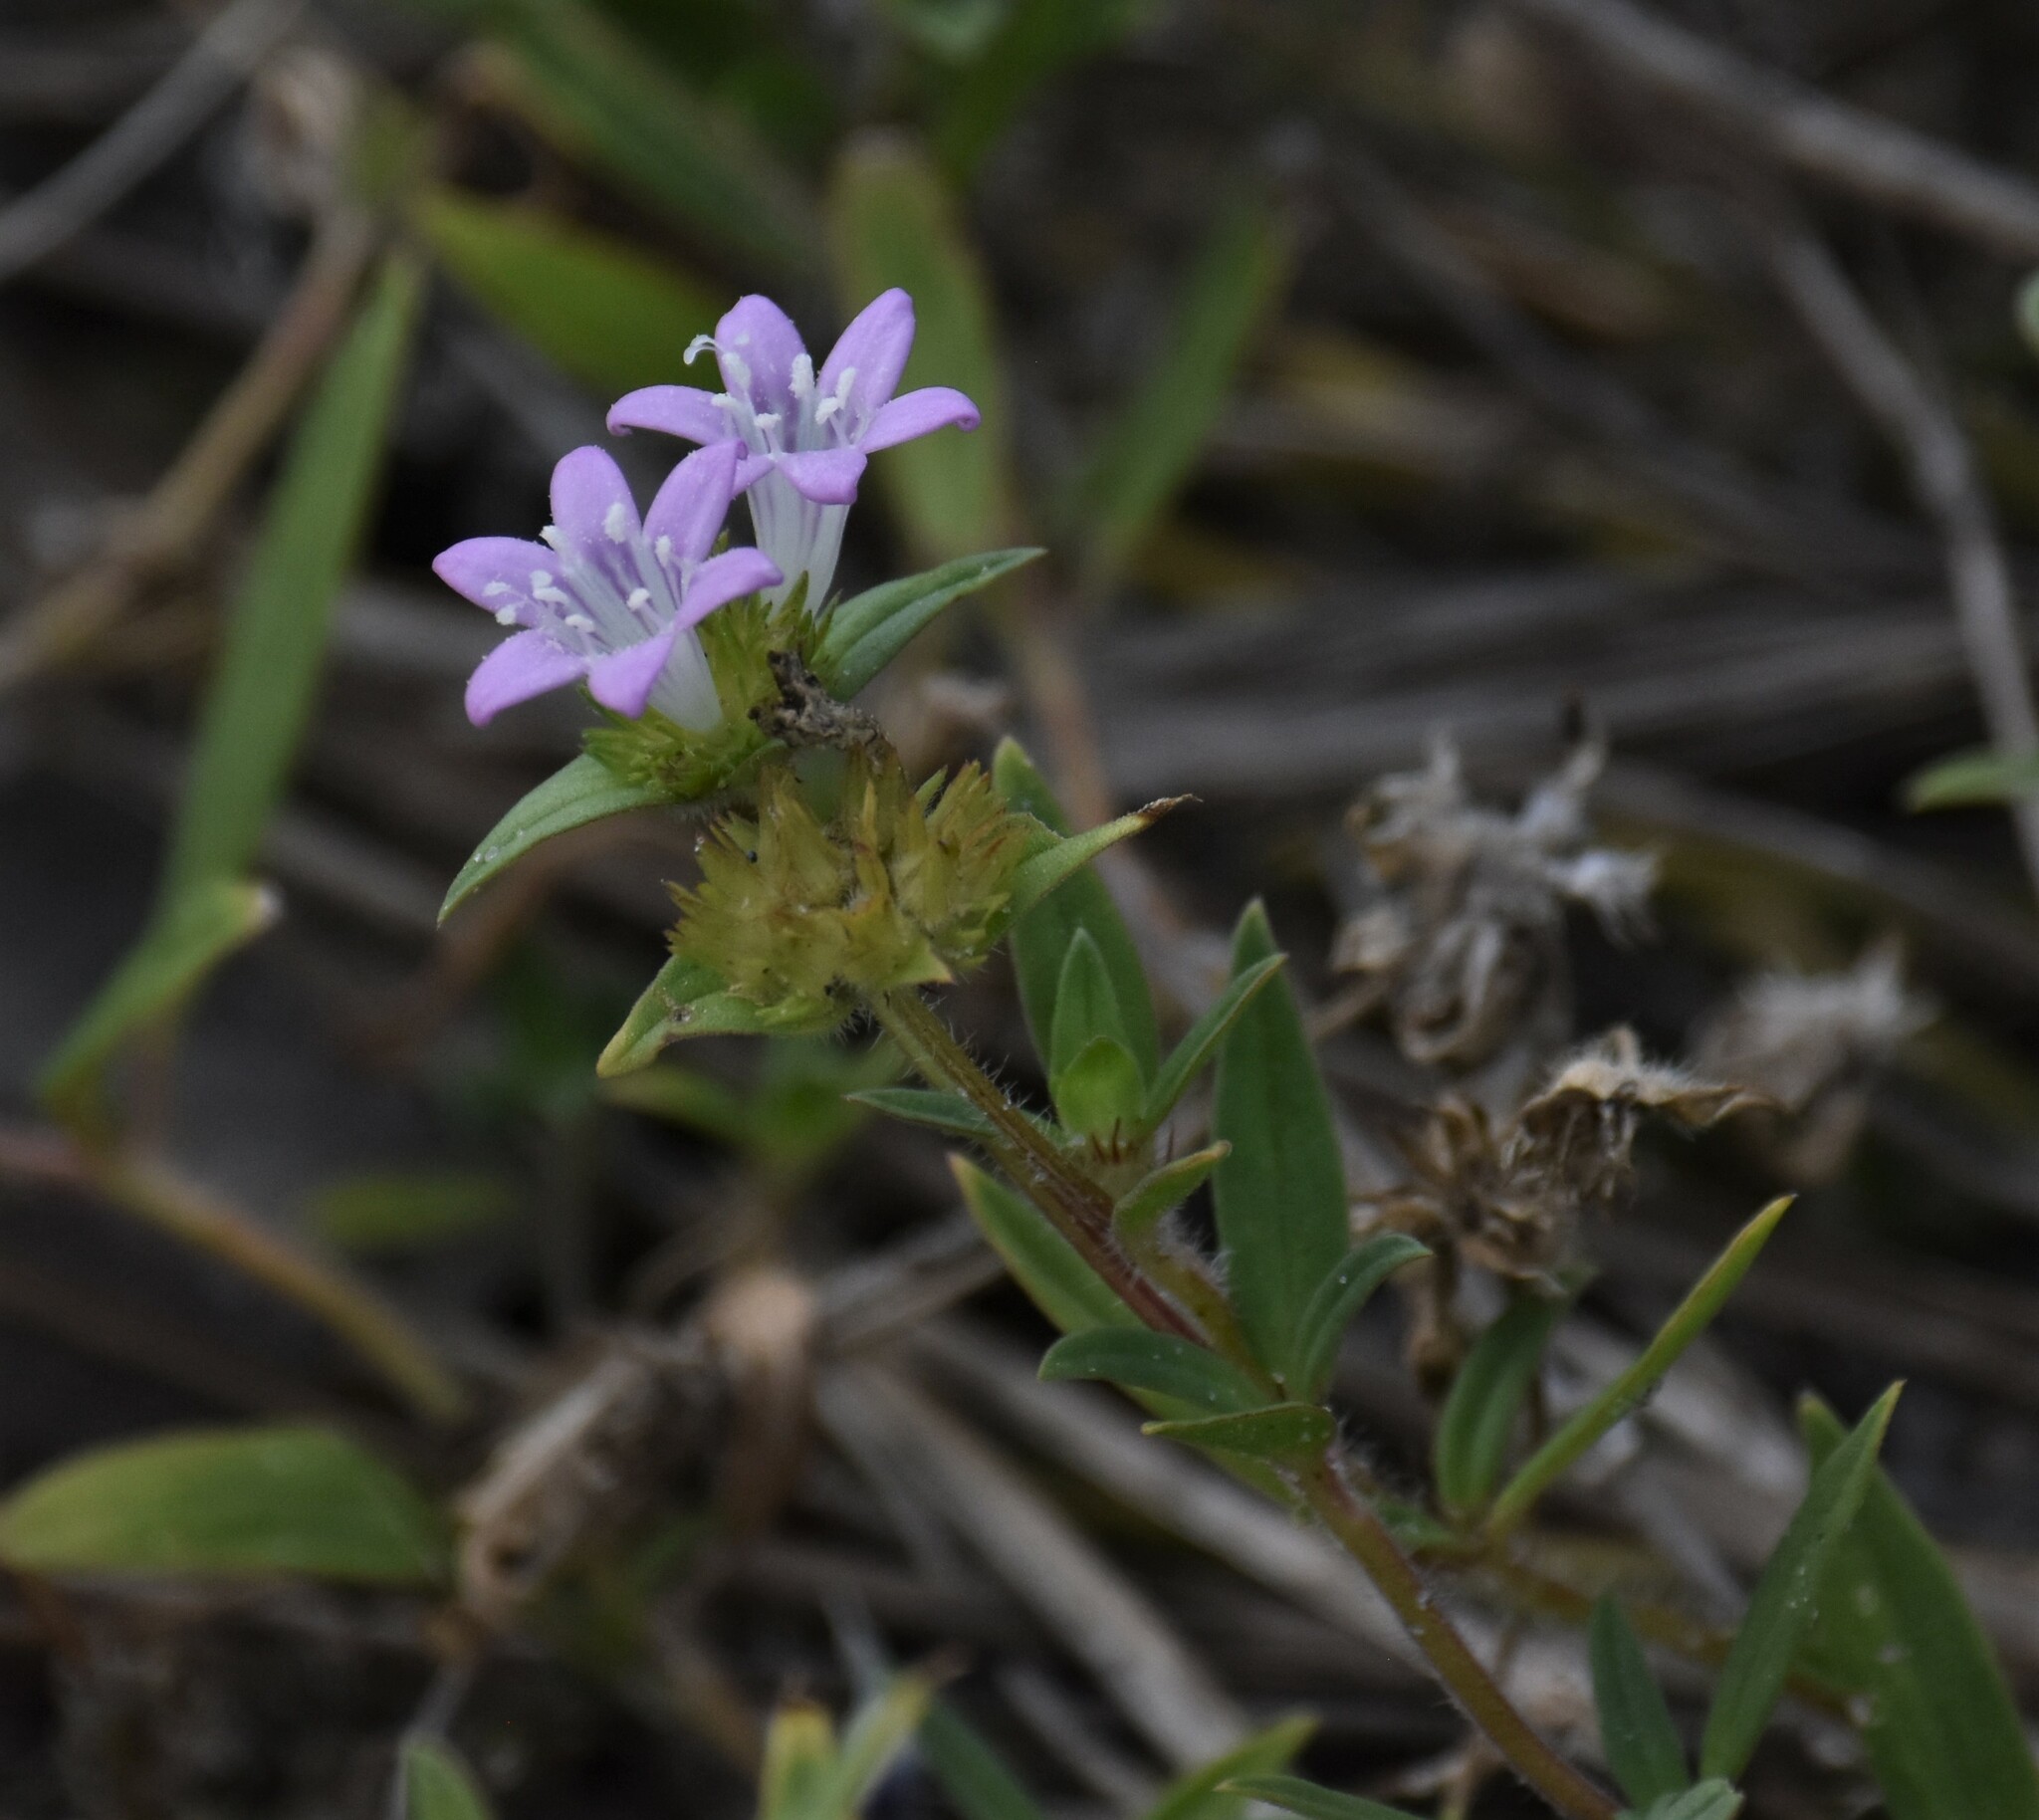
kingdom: Plantae
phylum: Tracheophyta
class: Magnoliopsida
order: Gentianales
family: Rubiaceae
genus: Richardia
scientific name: Richardia grandiflora
